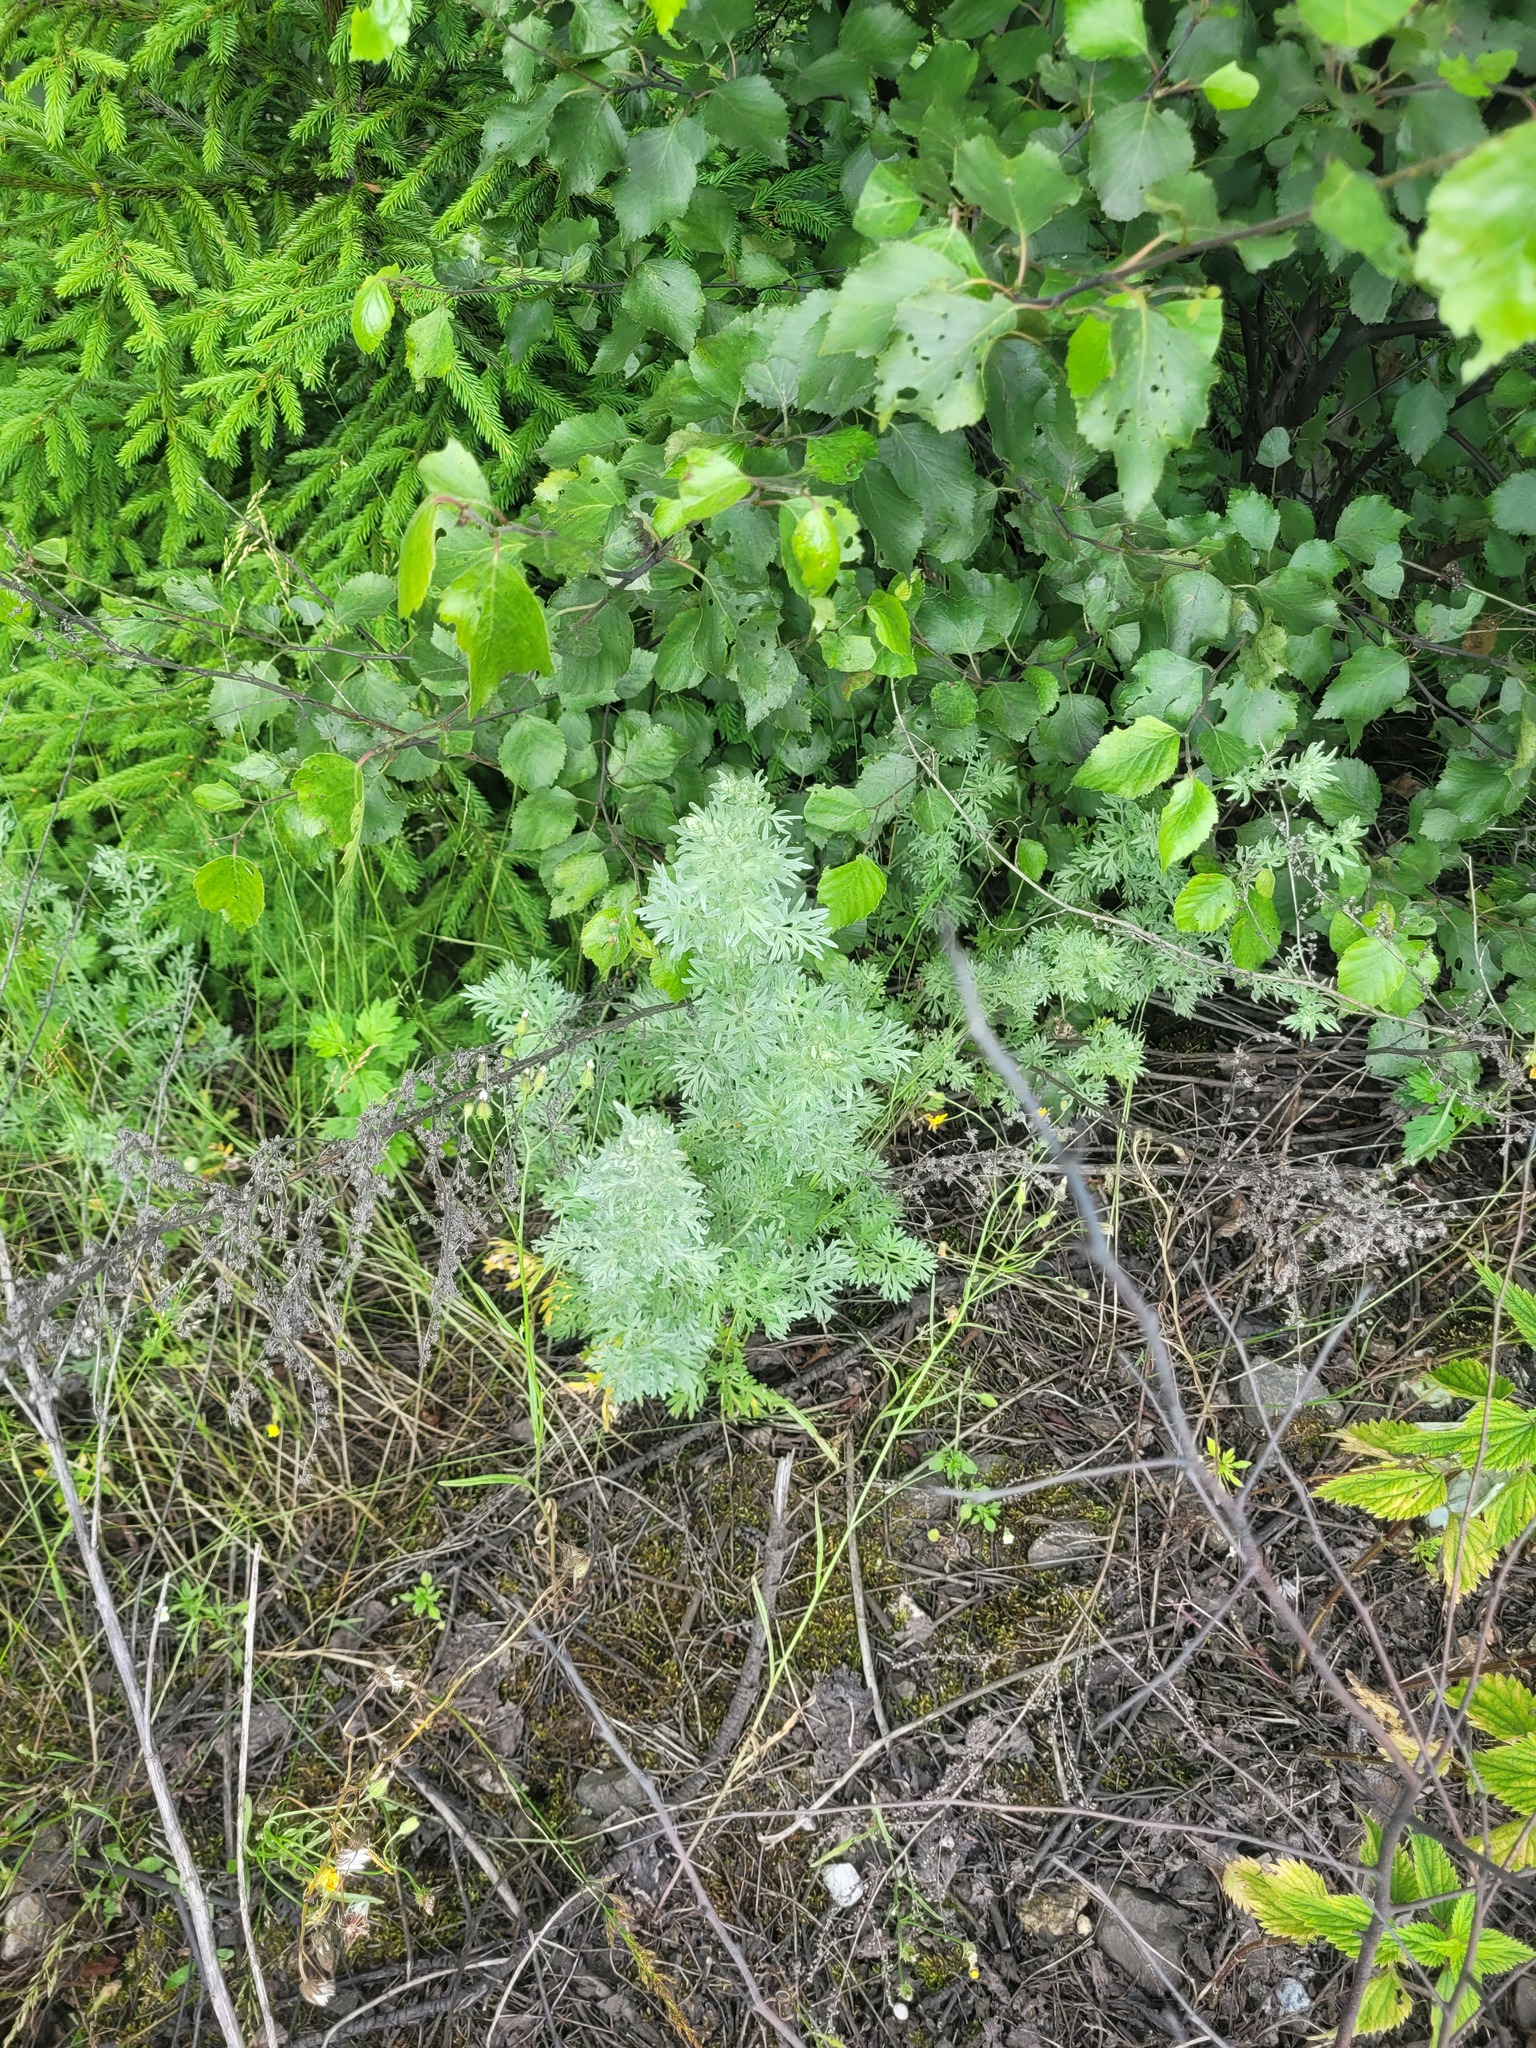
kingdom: Plantae
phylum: Tracheophyta
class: Magnoliopsida
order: Asterales
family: Asteraceae
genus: Artemisia
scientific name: Artemisia absinthium
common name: Wormwood
